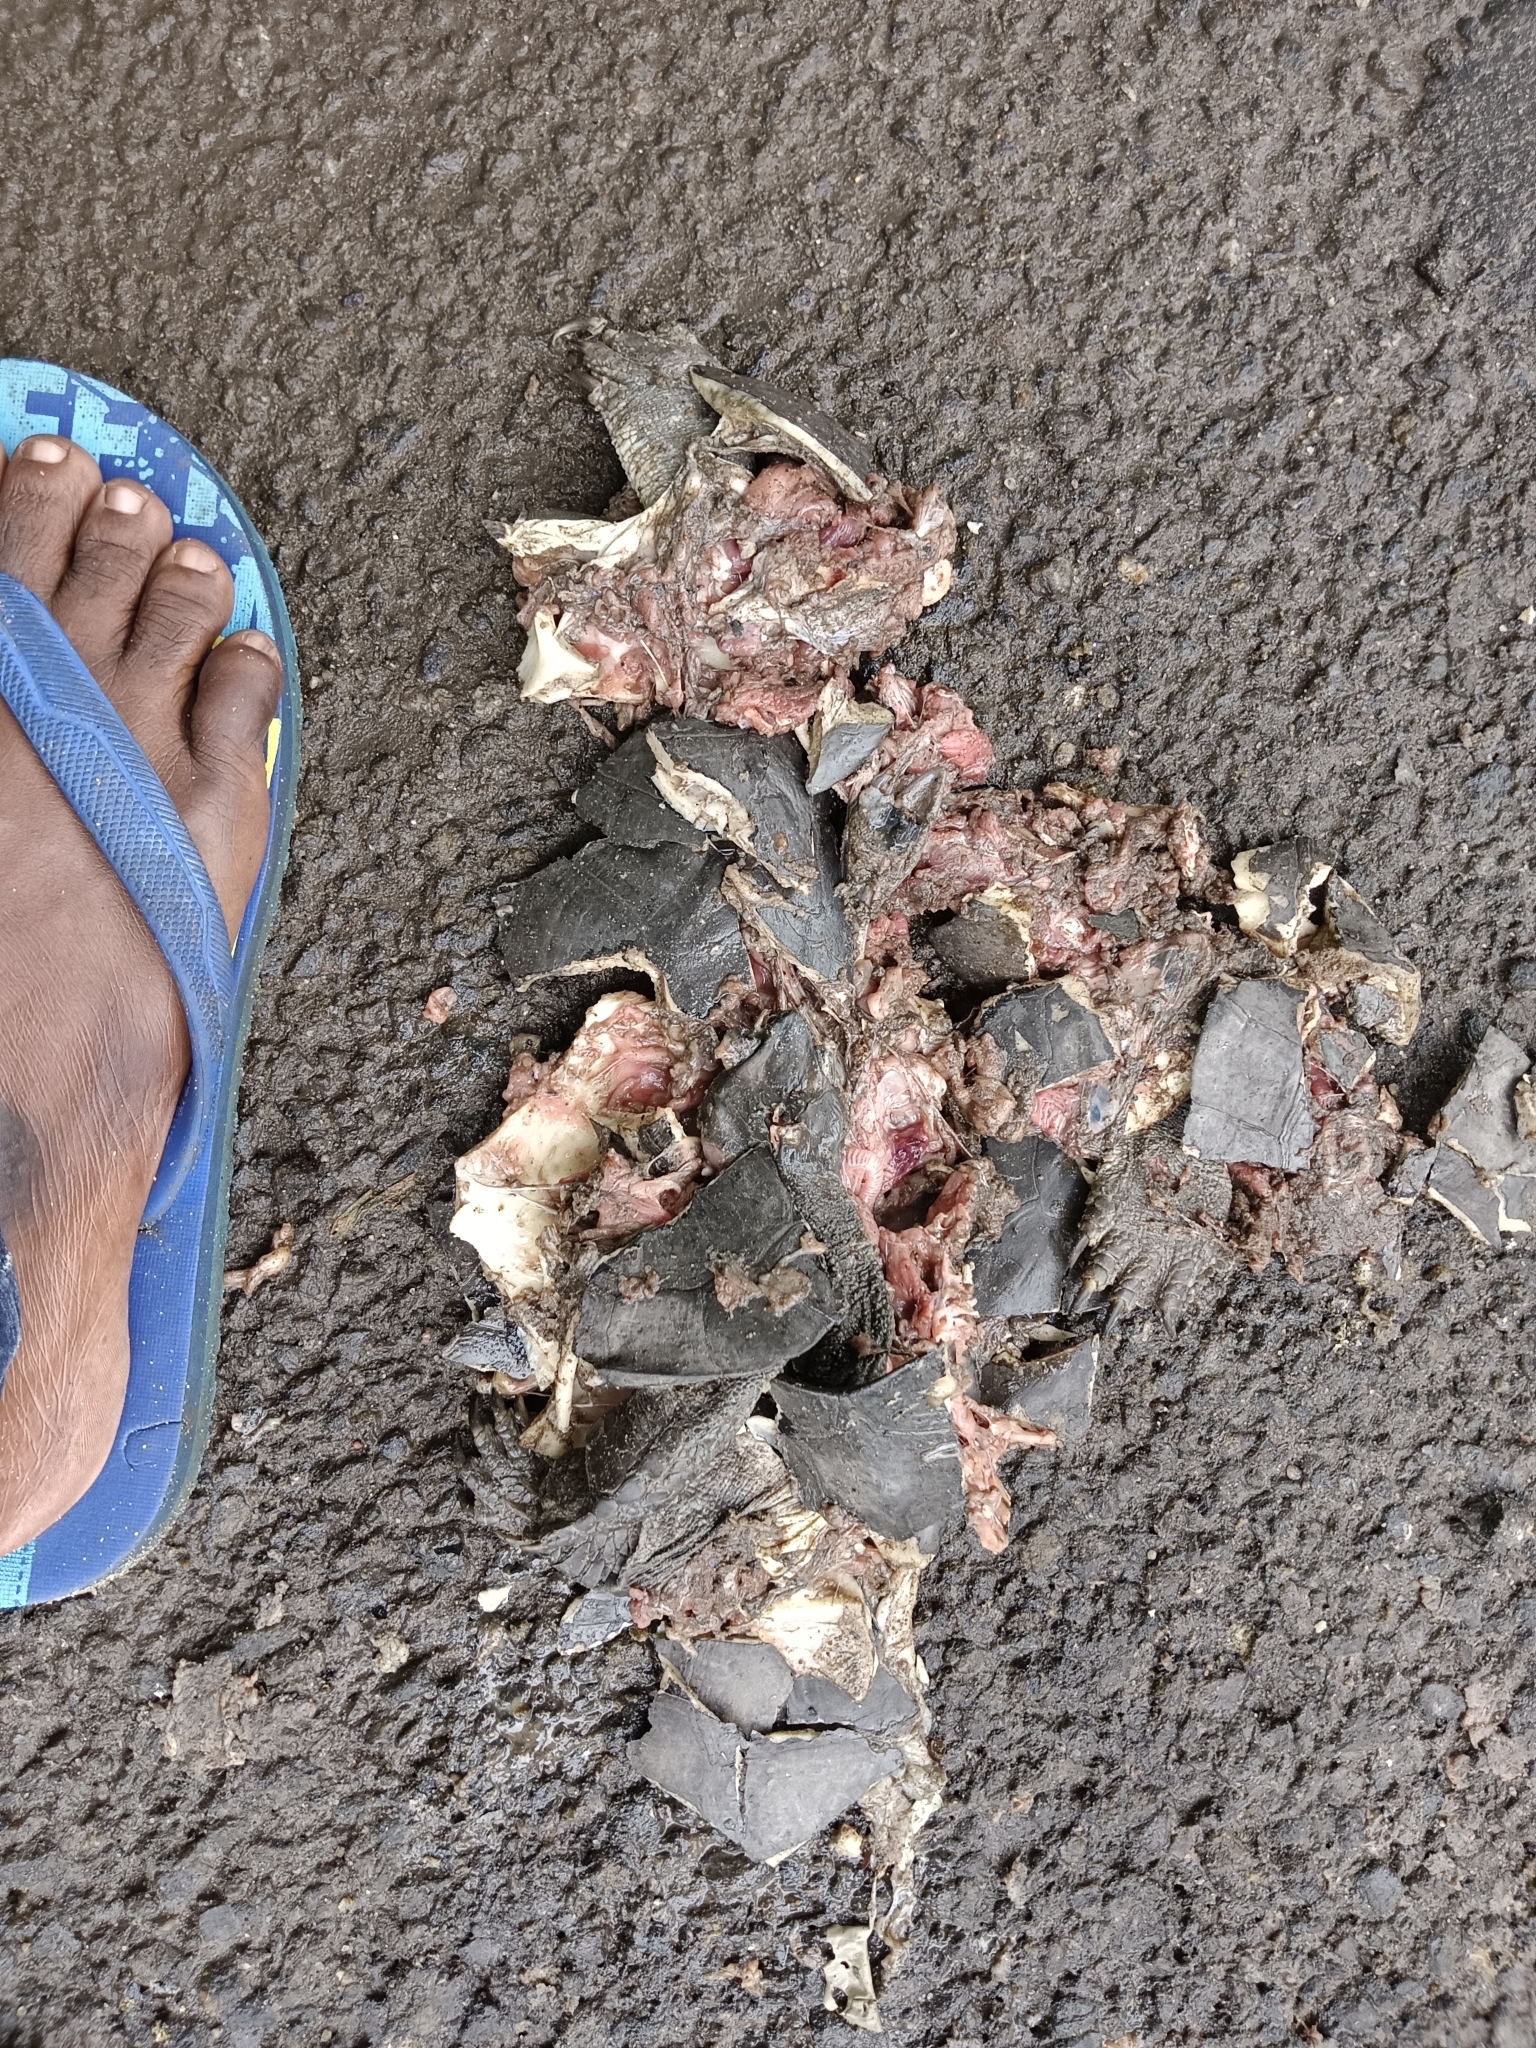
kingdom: Animalia
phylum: Chordata
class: Testudines
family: Geoemydidae
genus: Melanochelys
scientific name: Melanochelys trijuga
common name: Indian black turtle
